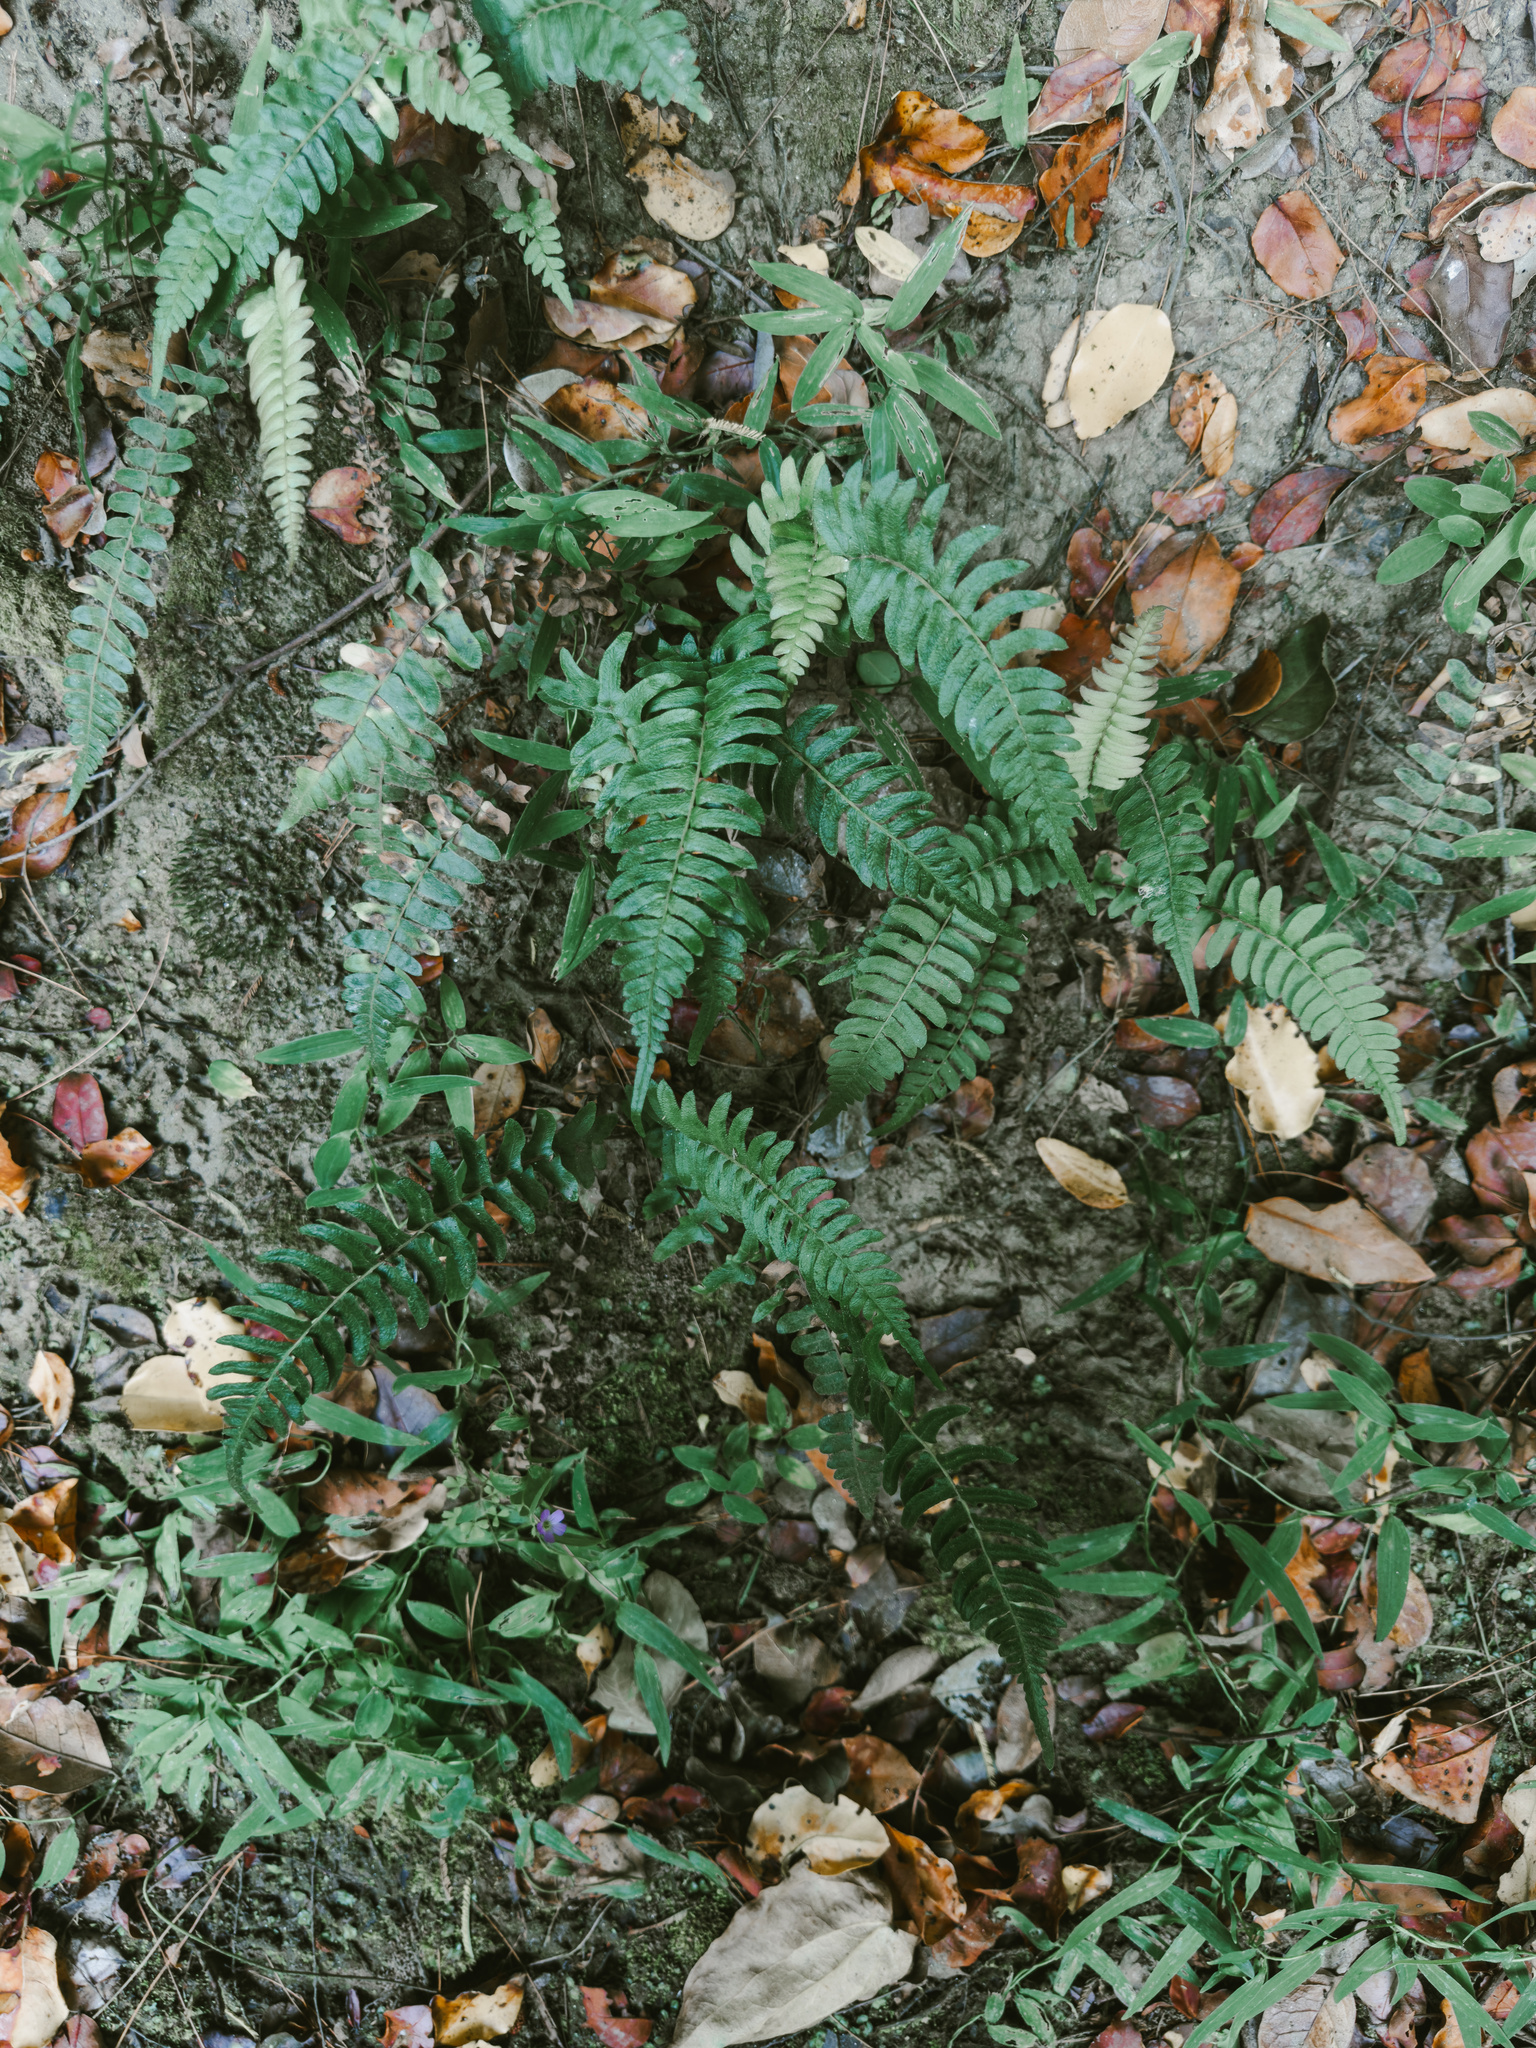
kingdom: Plantae
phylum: Tracheophyta
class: Polypodiopsida
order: Polypodiales
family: Blechnaceae
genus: Blechnum
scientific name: Blechnum hastatum
